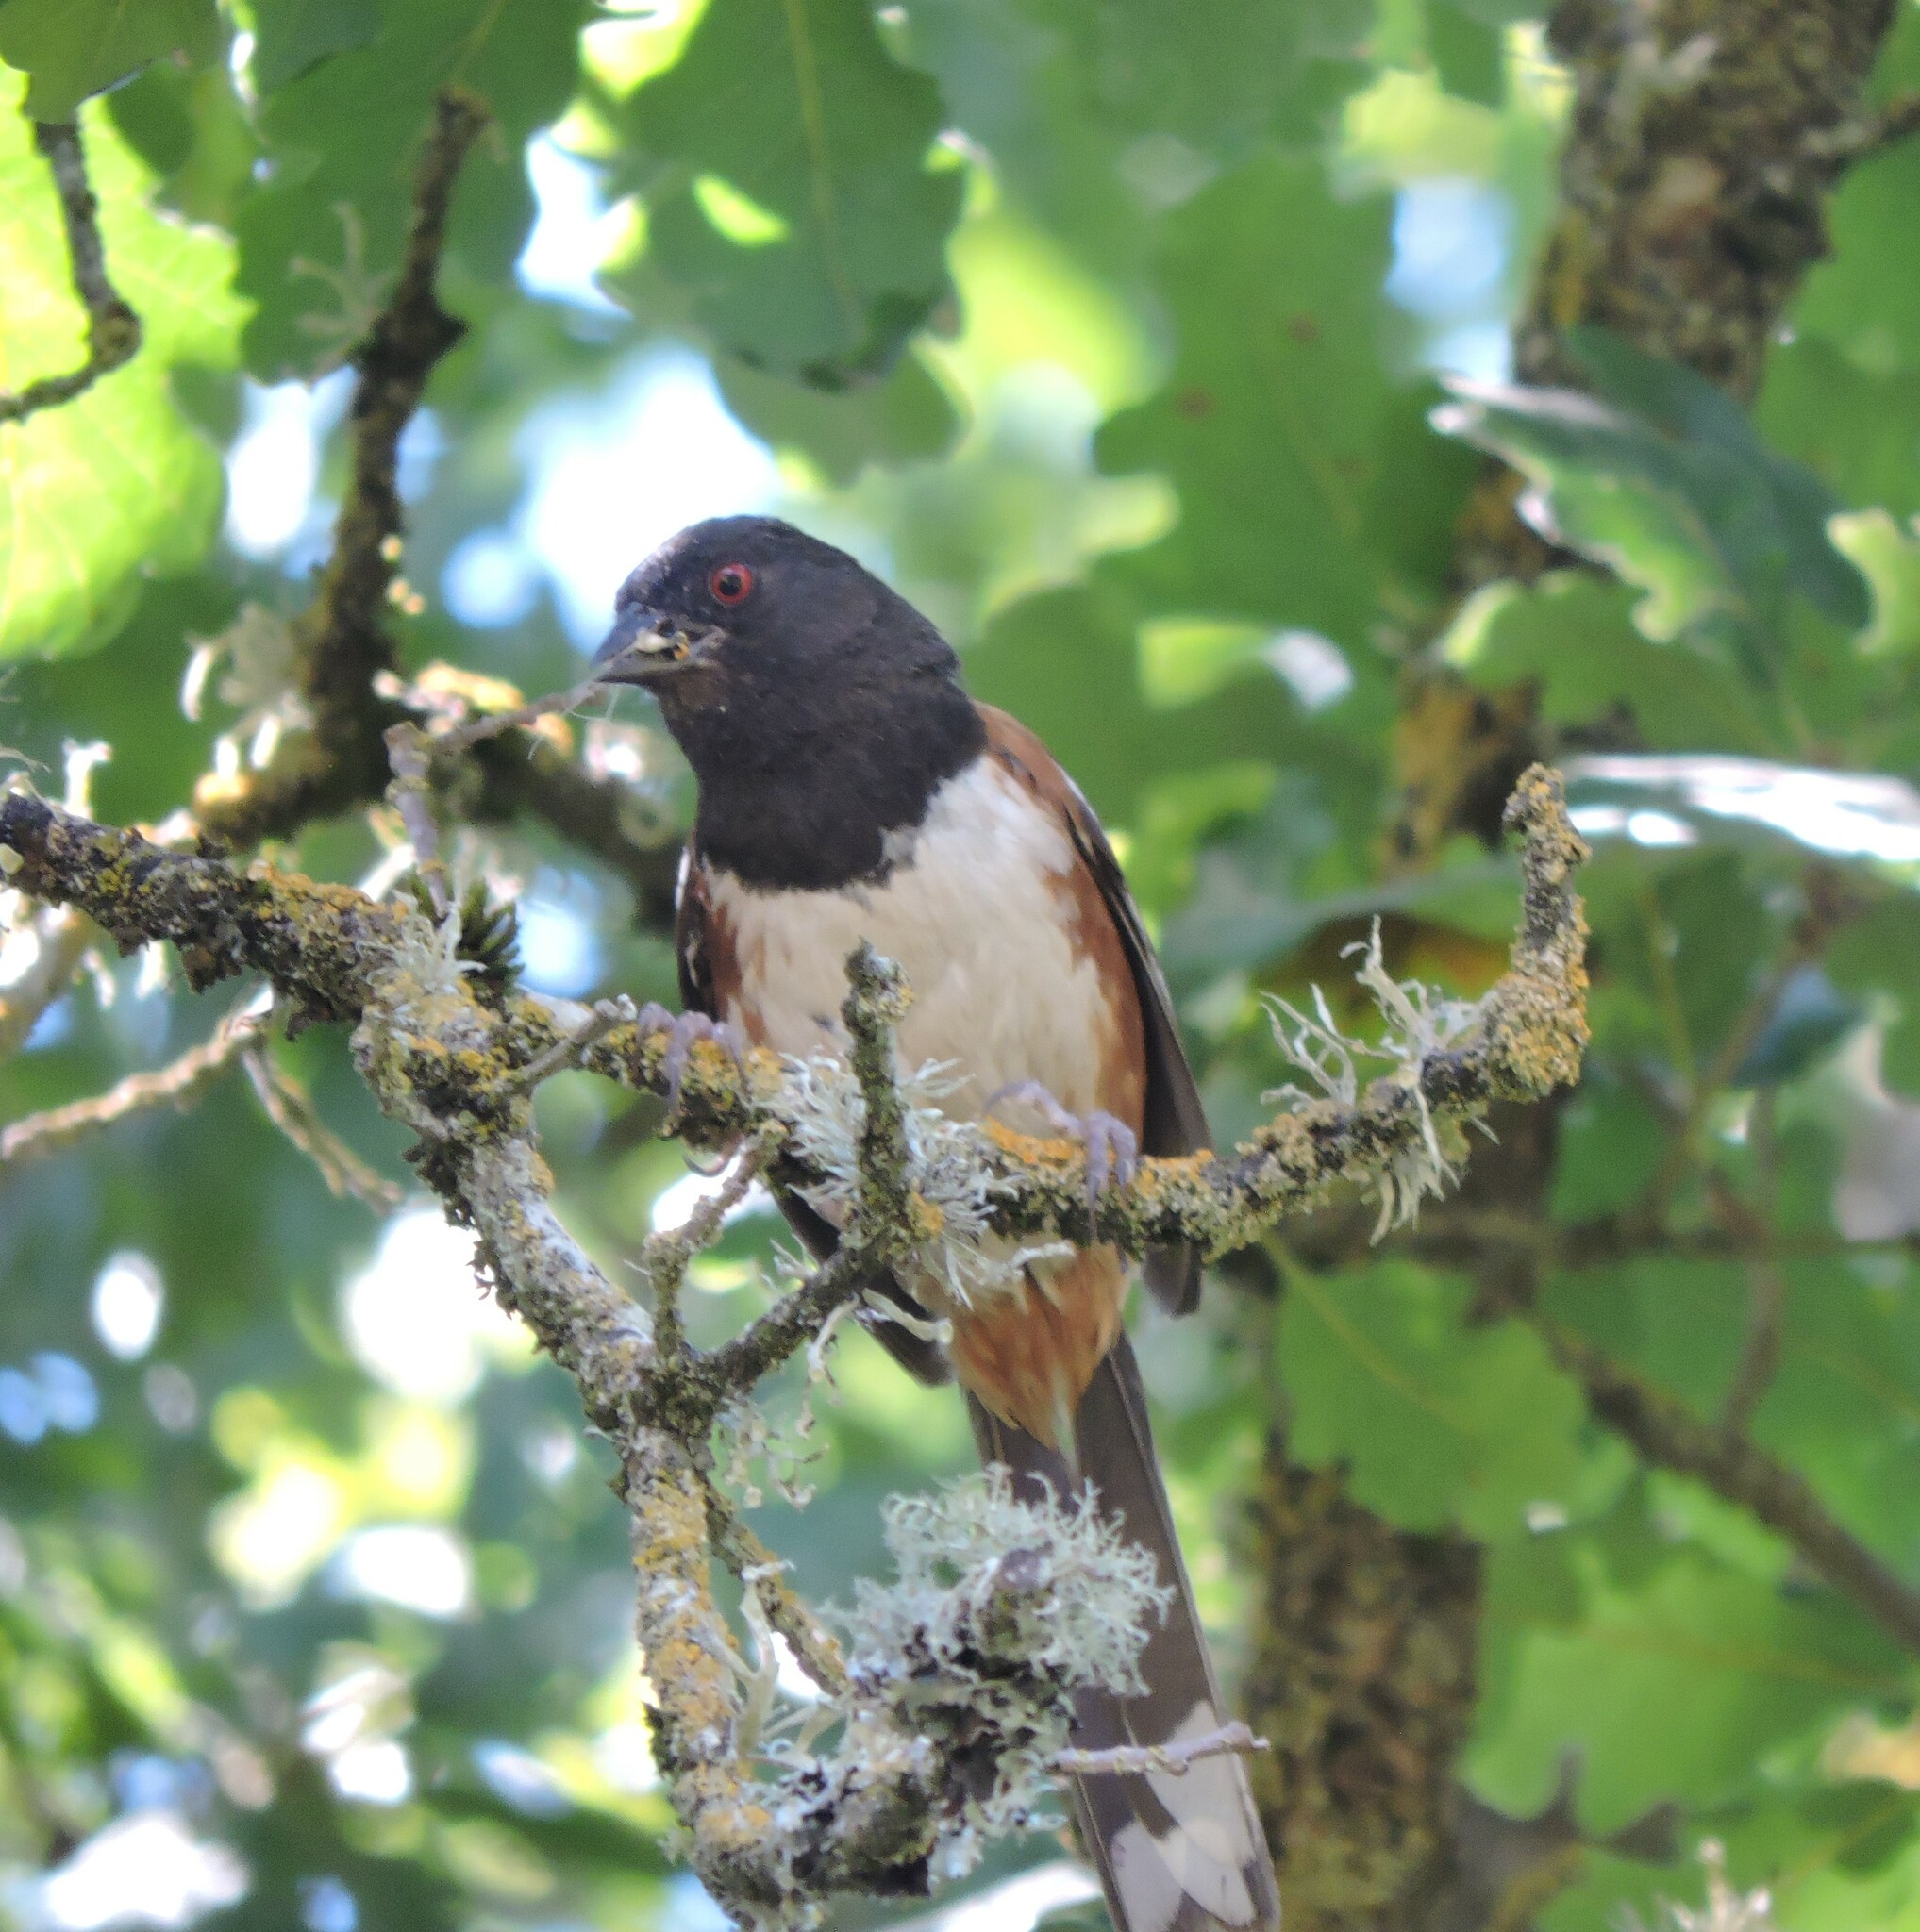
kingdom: Animalia
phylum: Chordata
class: Aves
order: Passeriformes
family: Passerellidae
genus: Pipilo
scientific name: Pipilo maculatus
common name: Spotted towhee
